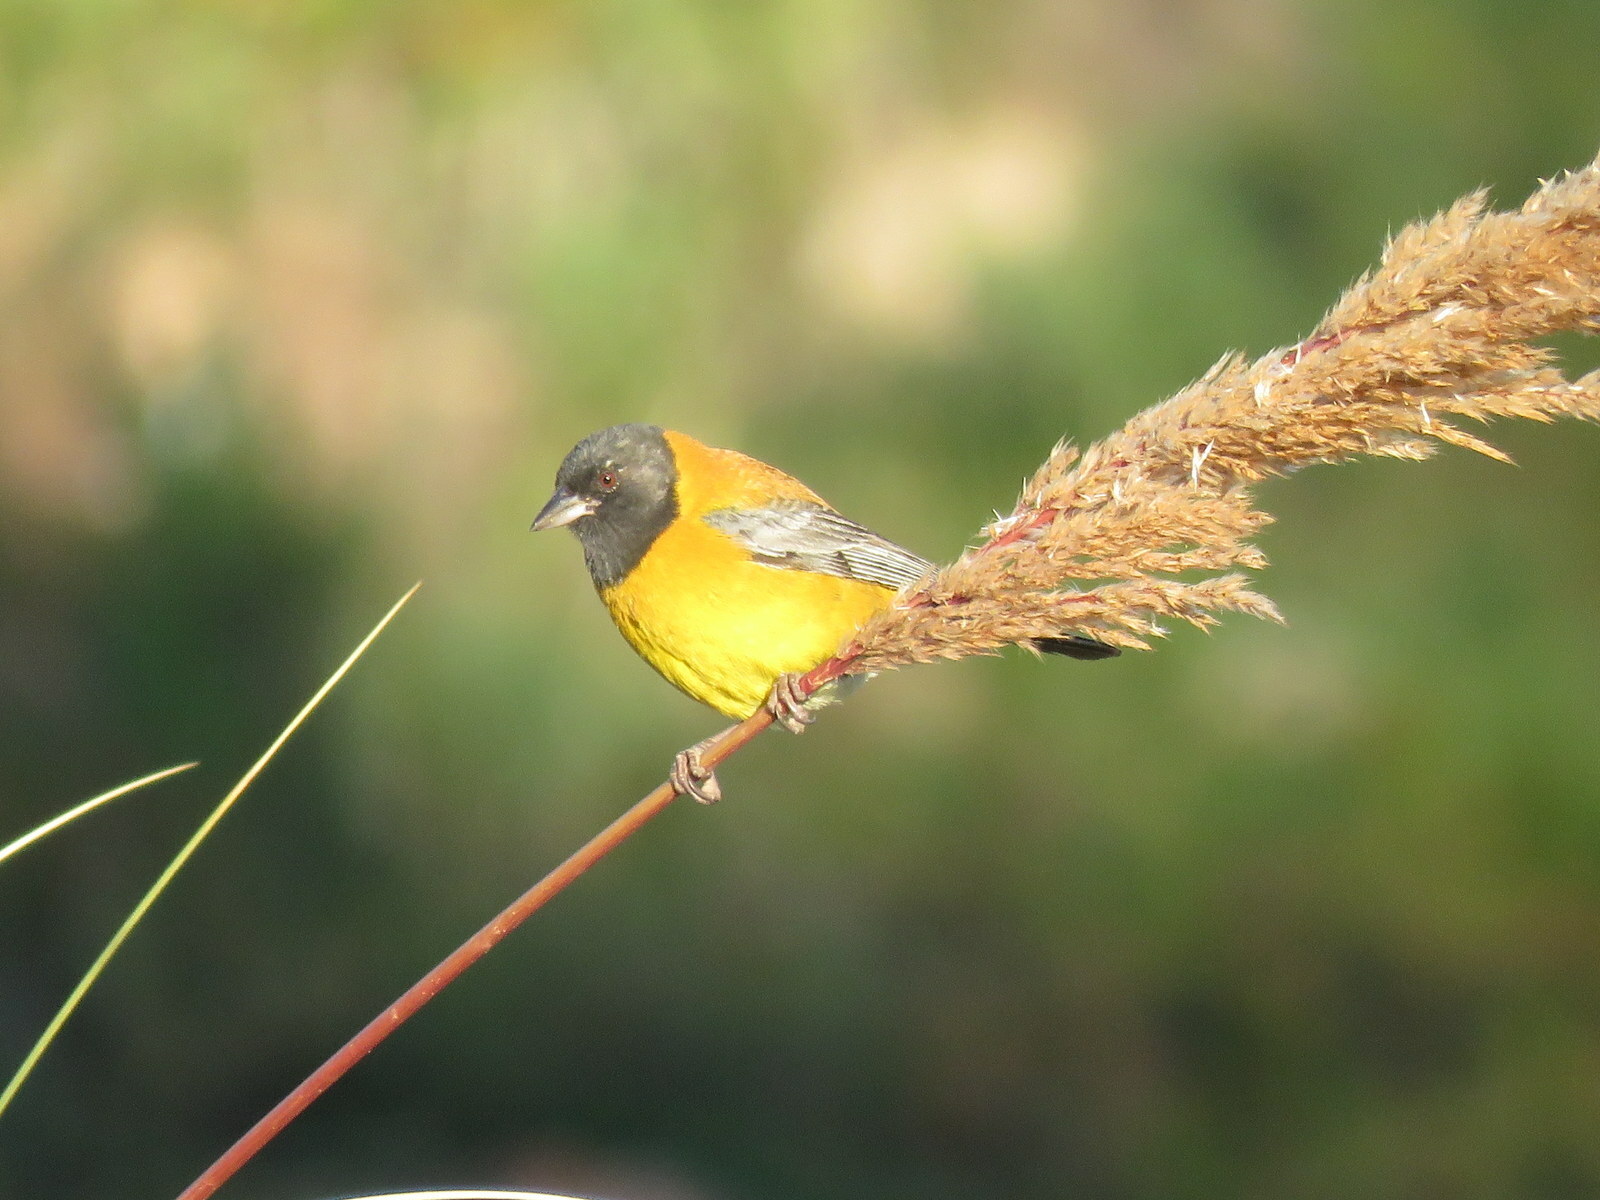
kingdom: Animalia
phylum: Chordata
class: Aves
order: Passeriformes
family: Thraupidae
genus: Phrygilus
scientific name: Phrygilus atriceps
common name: Black-hooded sierra finch
